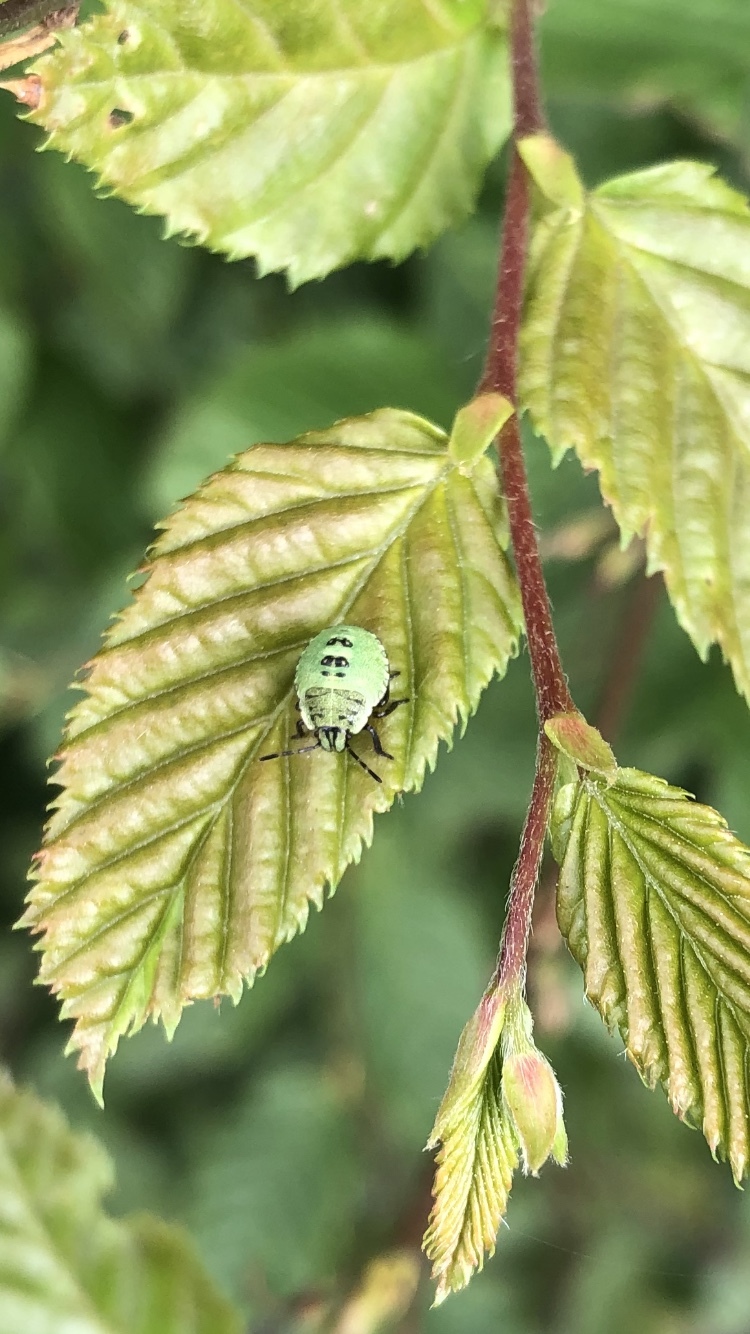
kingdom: Animalia
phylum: Arthropoda
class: Insecta
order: Hemiptera
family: Pentatomidae
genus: Palomena
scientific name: Palomena prasina
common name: Green shieldbug
